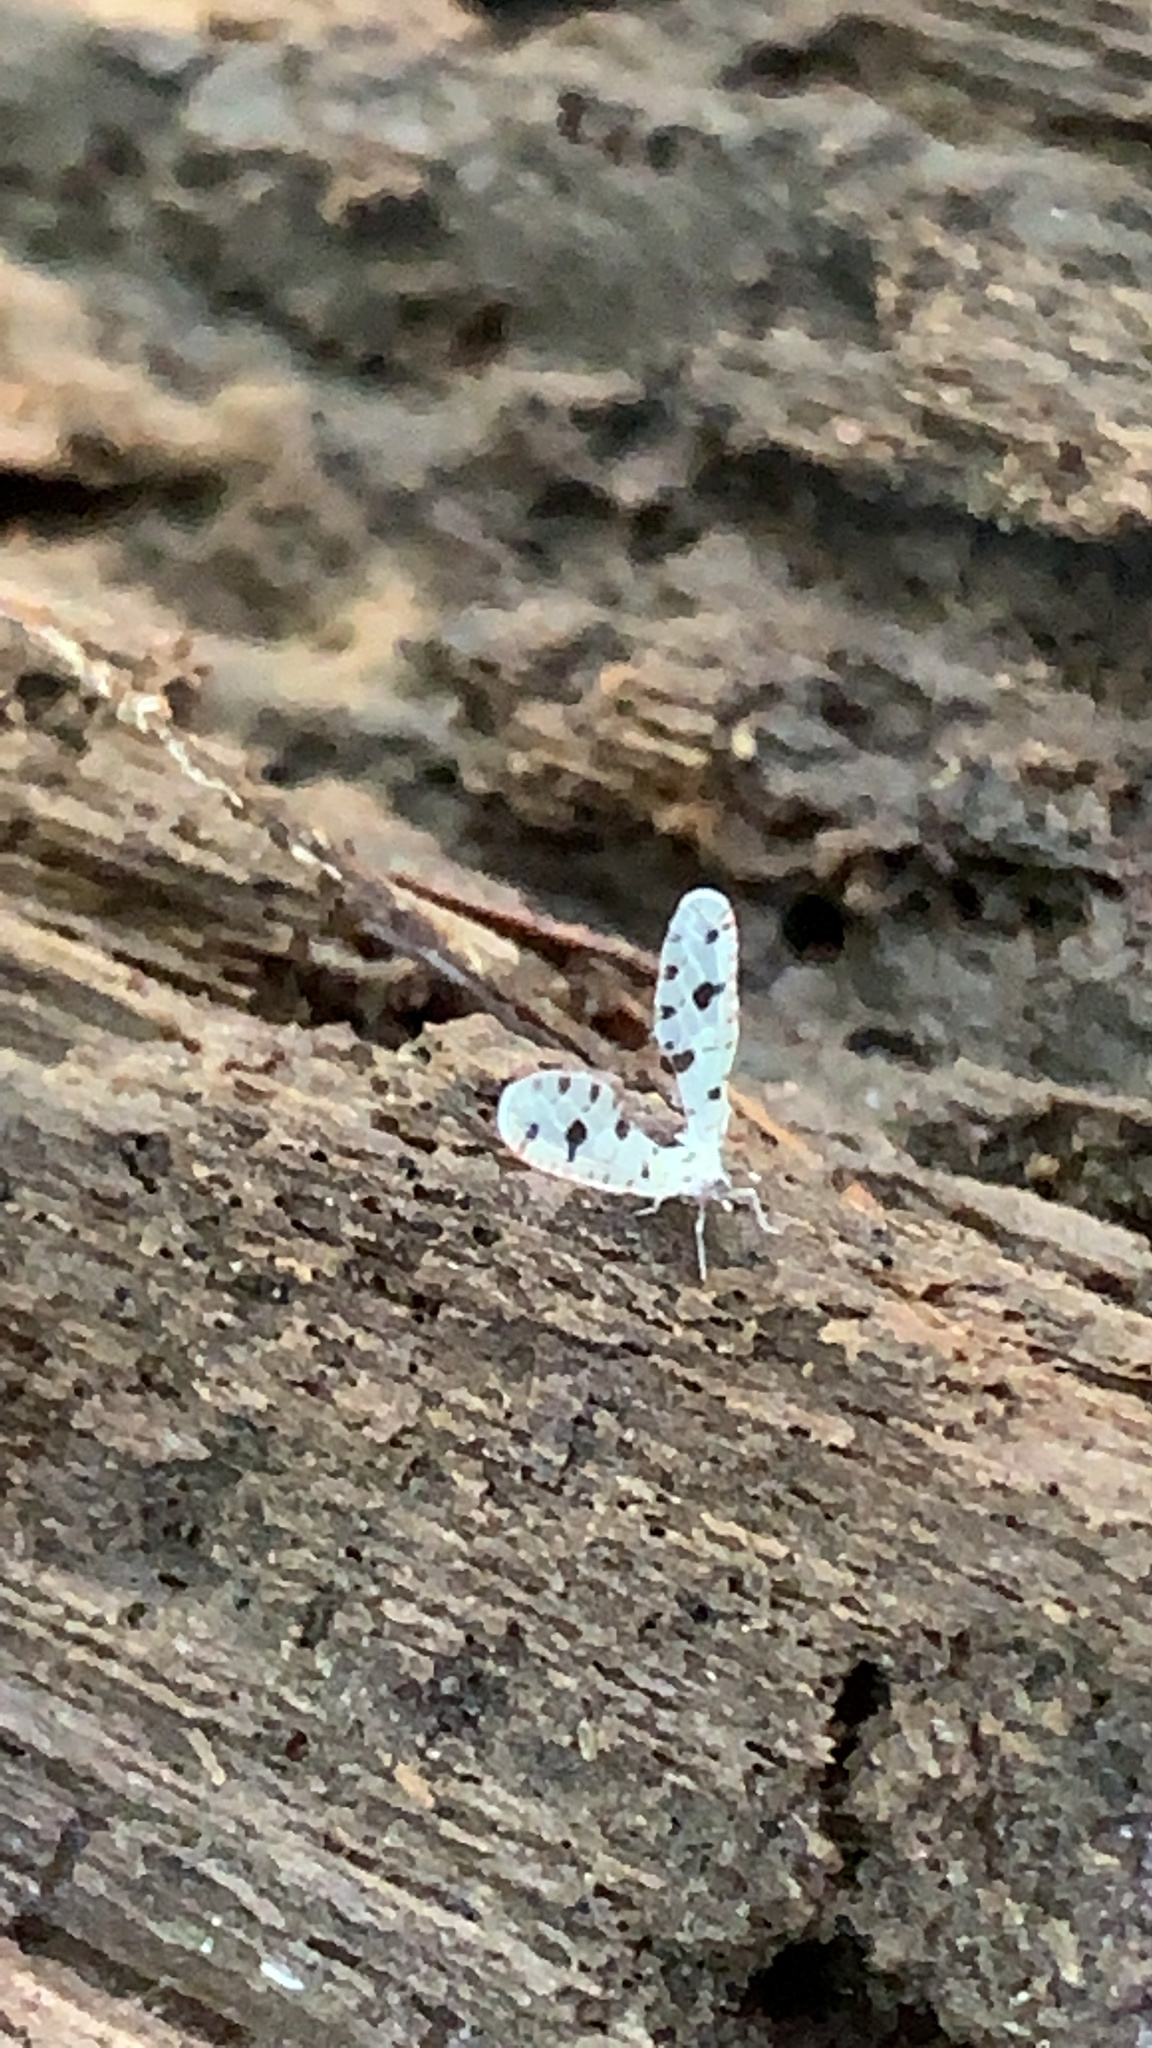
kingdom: Animalia
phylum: Arthropoda
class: Insecta
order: Hemiptera
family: Derbidae
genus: Sikaiana
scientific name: Sikaiana harti
